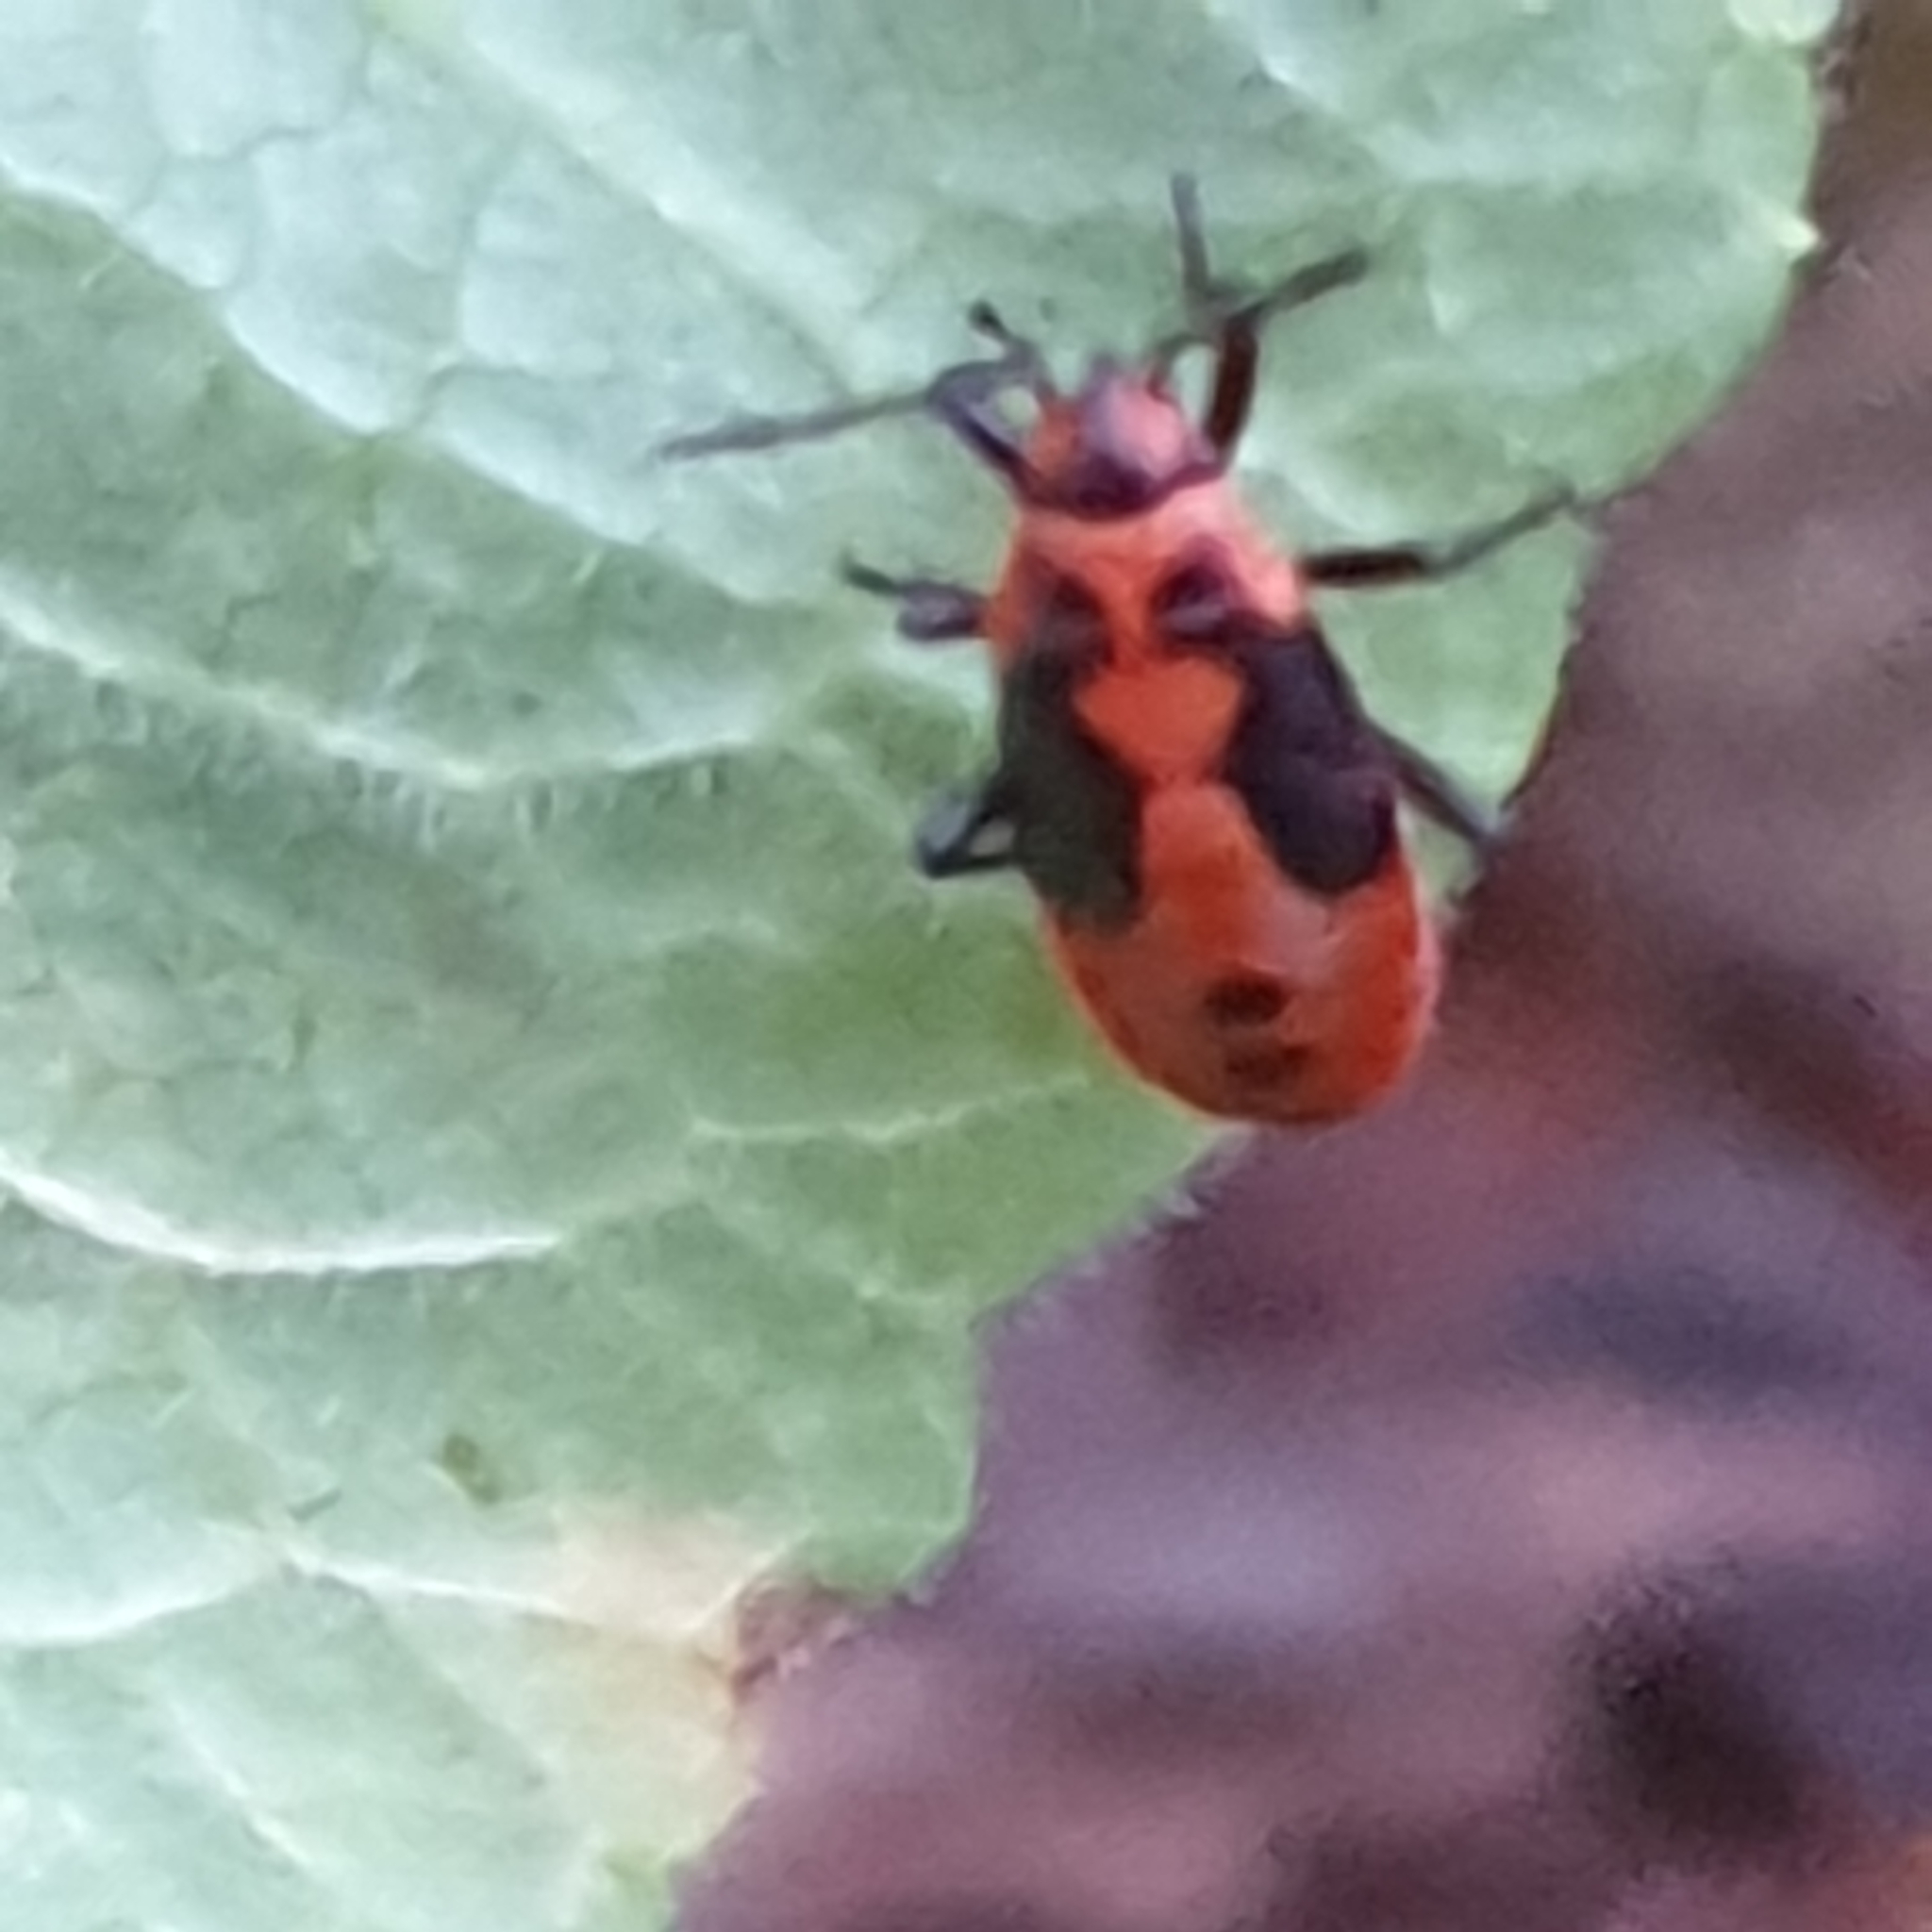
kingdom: Animalia
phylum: Arthropoda
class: Insecta
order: Hemiptera
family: Lygaeidae
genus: Lygaeus
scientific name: Lygaeus equestris
